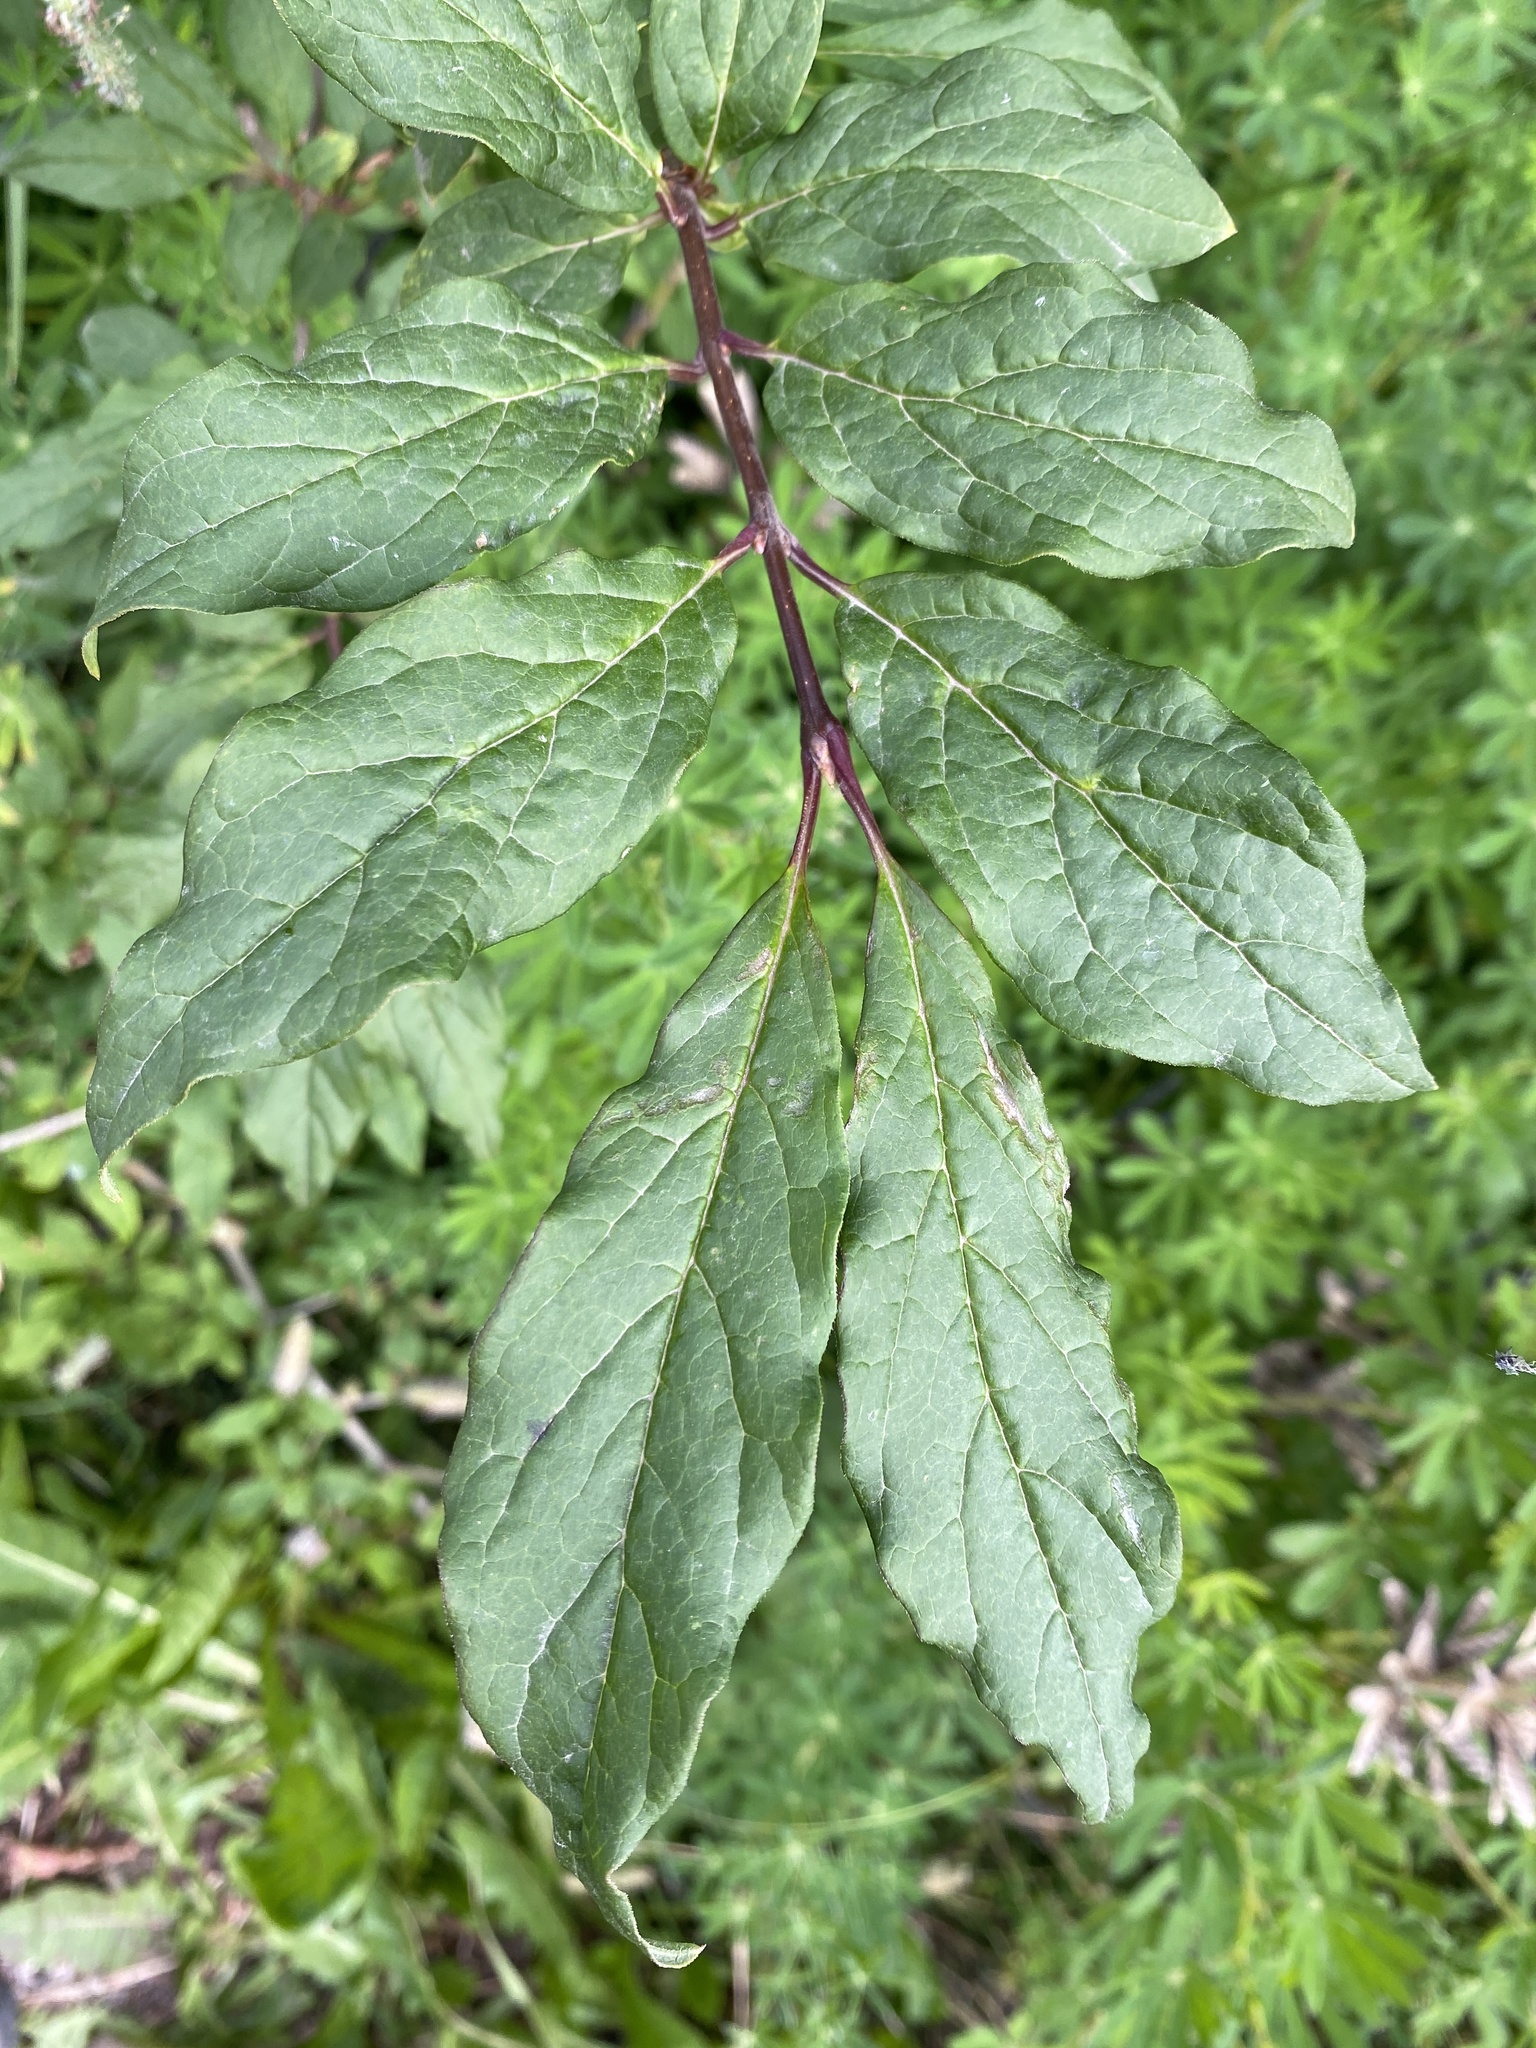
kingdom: Plantae
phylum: Tracheophyta
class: Magnoliopsida
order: Lamiales
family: Oleaceae
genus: Syringa
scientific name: Syringa josikaea
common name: Hungarian lilac
